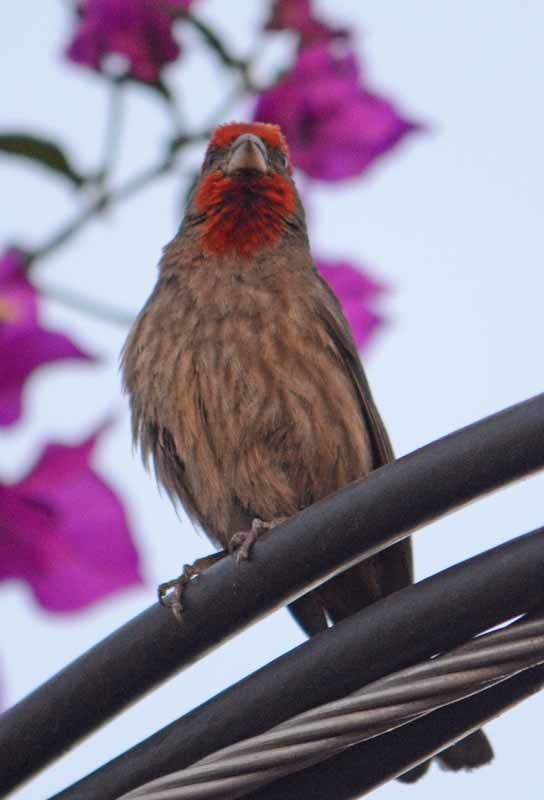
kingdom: Animalia
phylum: Chordata
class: Aves
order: Passeriformes
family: Fringillidae
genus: Haemorhous
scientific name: Haemorhous mexicanus
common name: House finch
